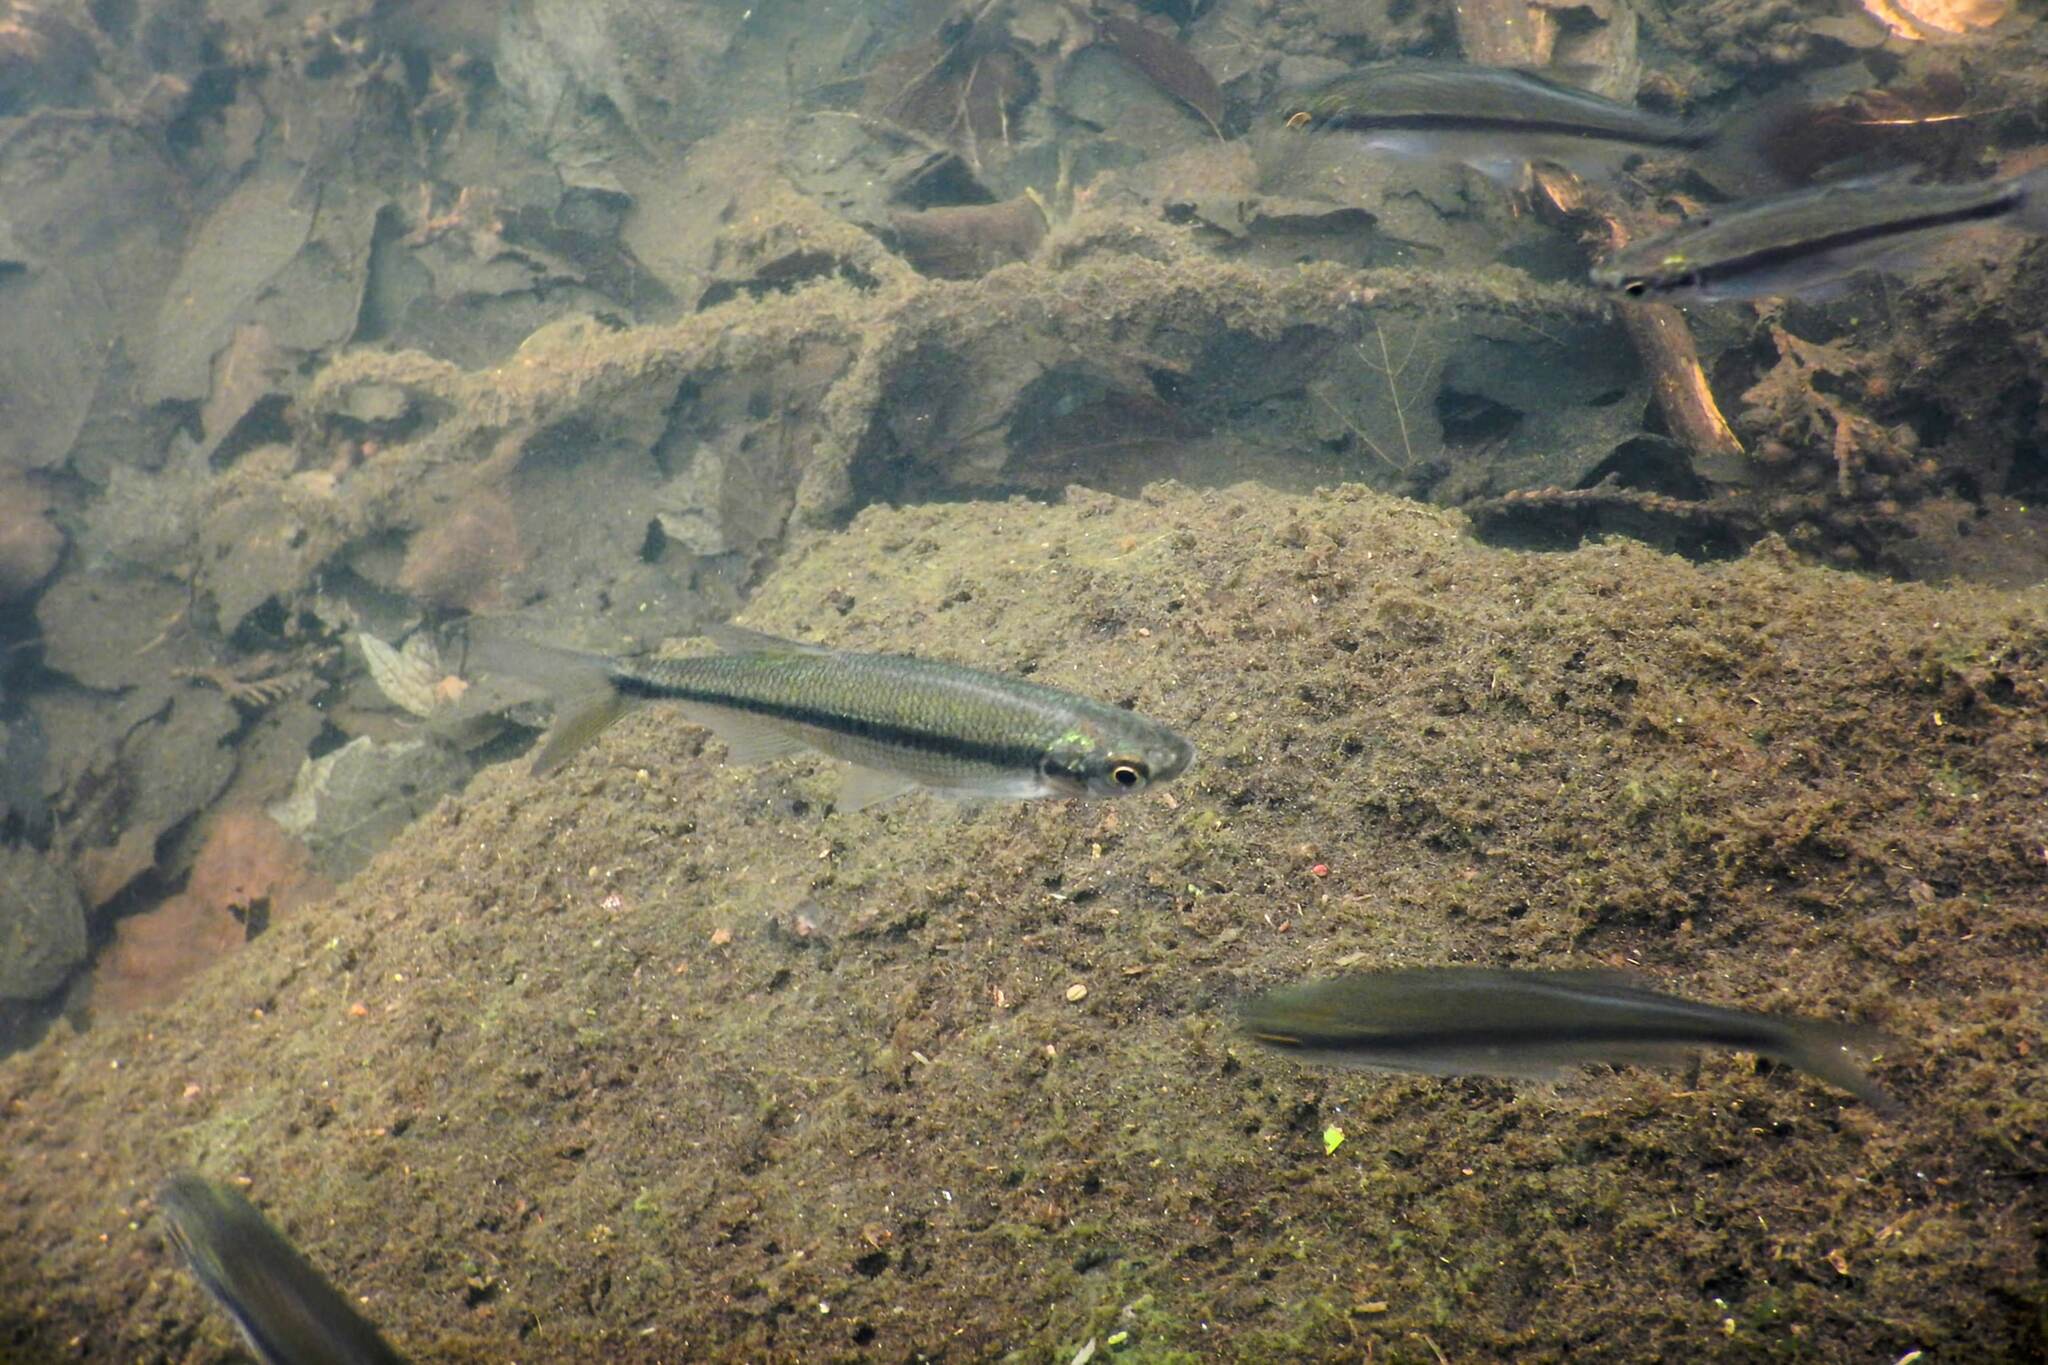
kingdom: Animalia
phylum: Chordata
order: Cypriniformes
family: Cyprinidae
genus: Notemigonus
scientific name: Notemigonus crysoleucas
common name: Golden shiner
